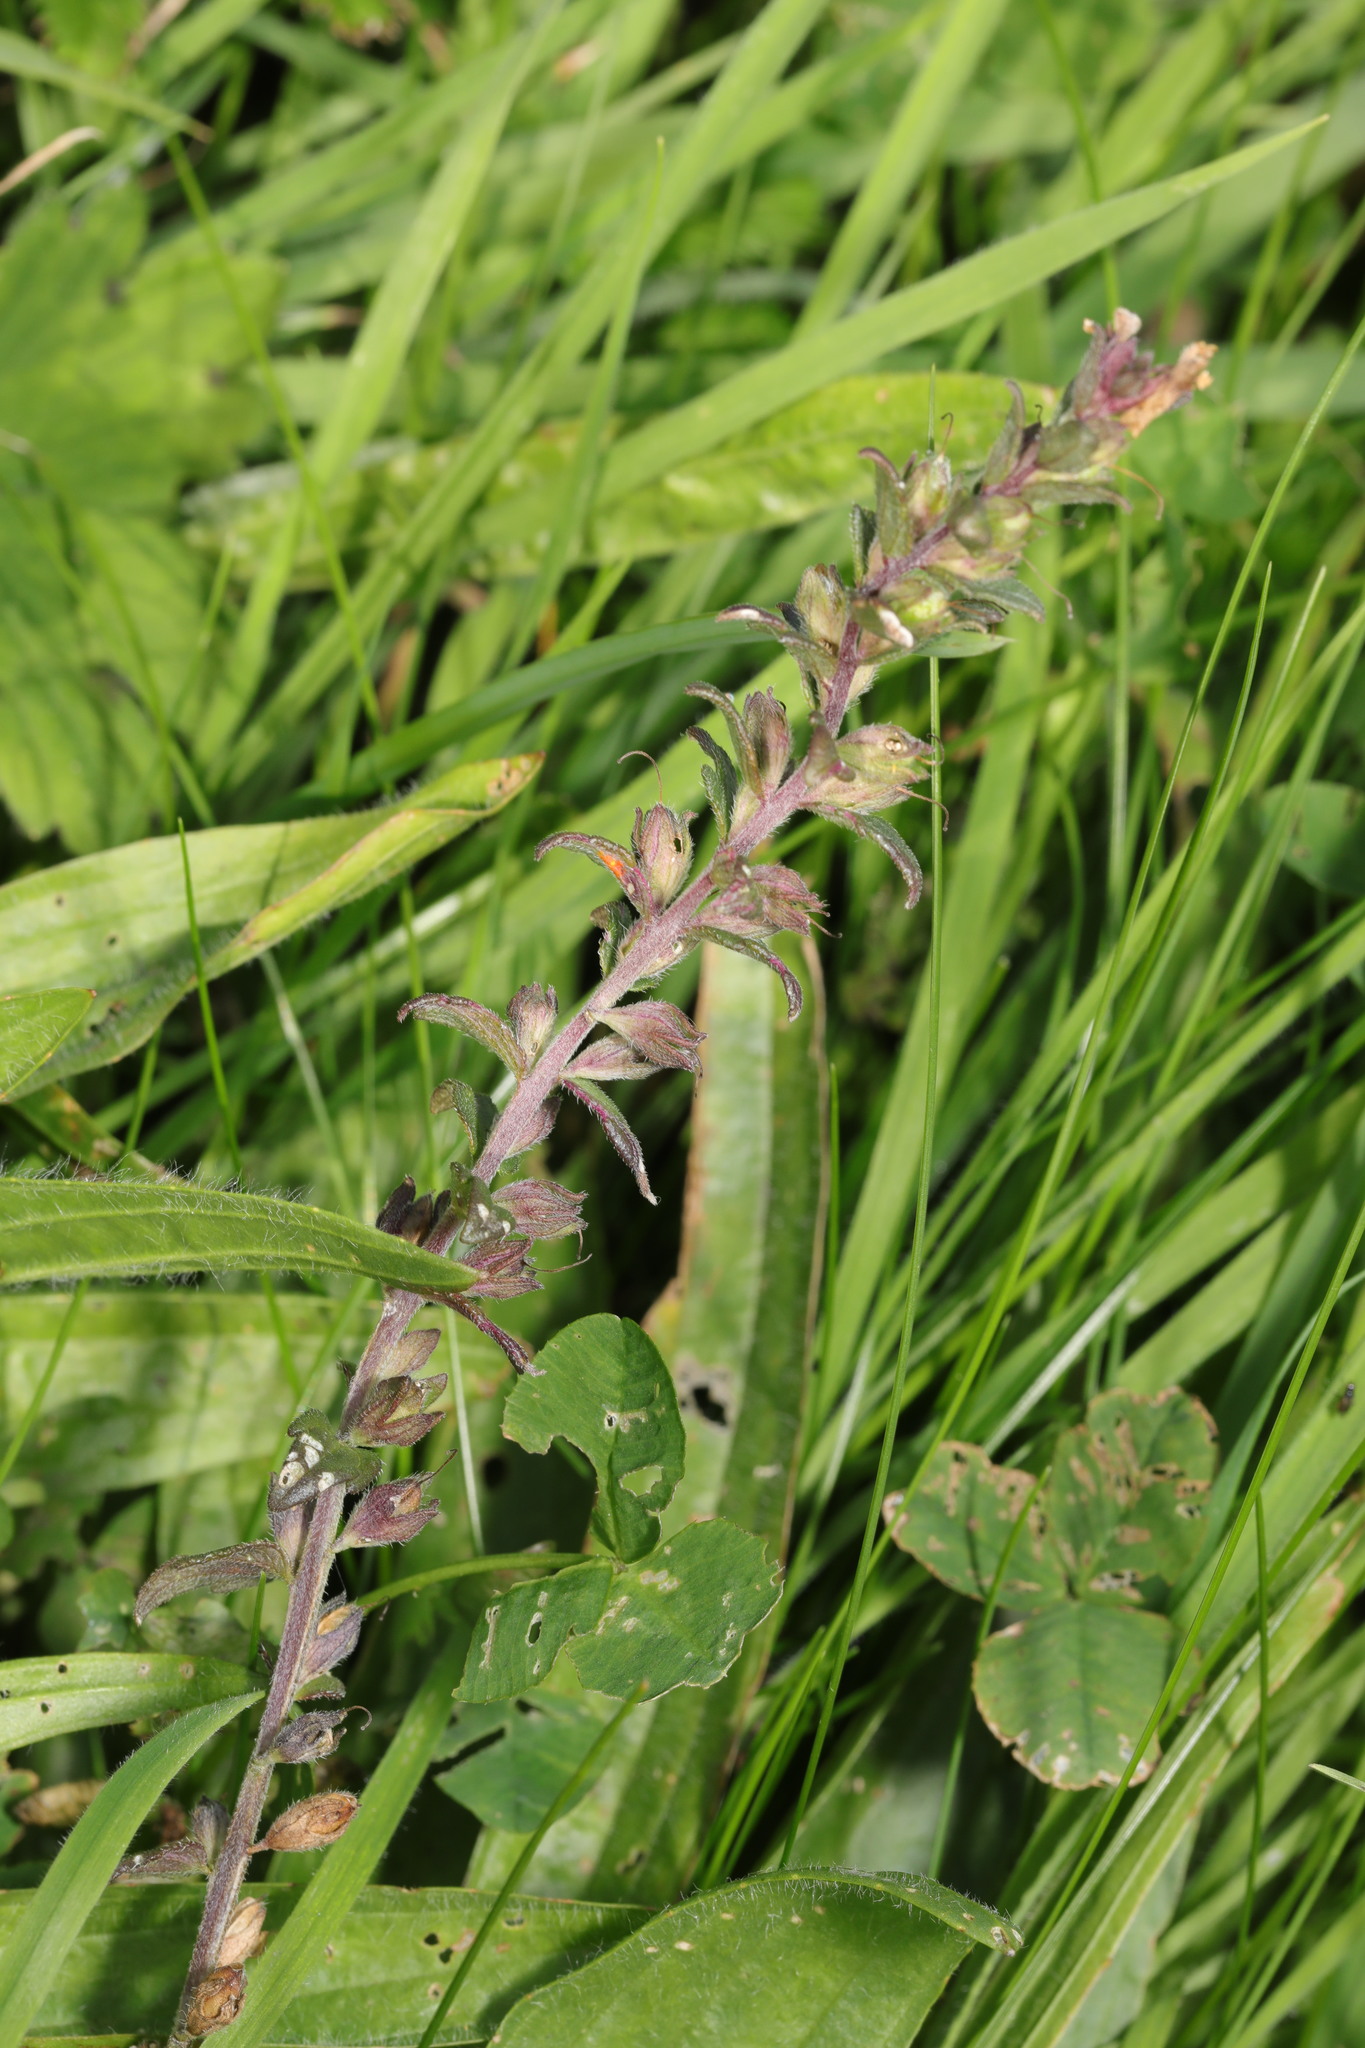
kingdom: Plantae
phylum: Tracheophyta
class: Magnoliopsida
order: Lamiales
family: Orobanchaceae
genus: Odontites
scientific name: Odontites vulgaris
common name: Broomrape
